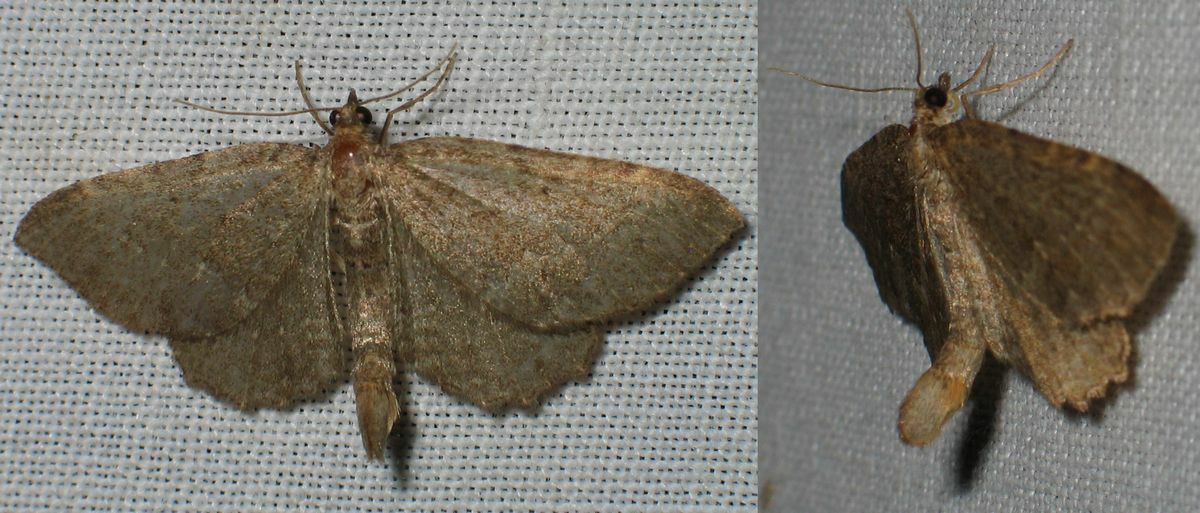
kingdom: Animalia
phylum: Arthropoda
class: Insecta
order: Lepidoptera
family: Geometridae
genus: Philereme
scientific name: Philereme vetulata
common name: Brown scallop
